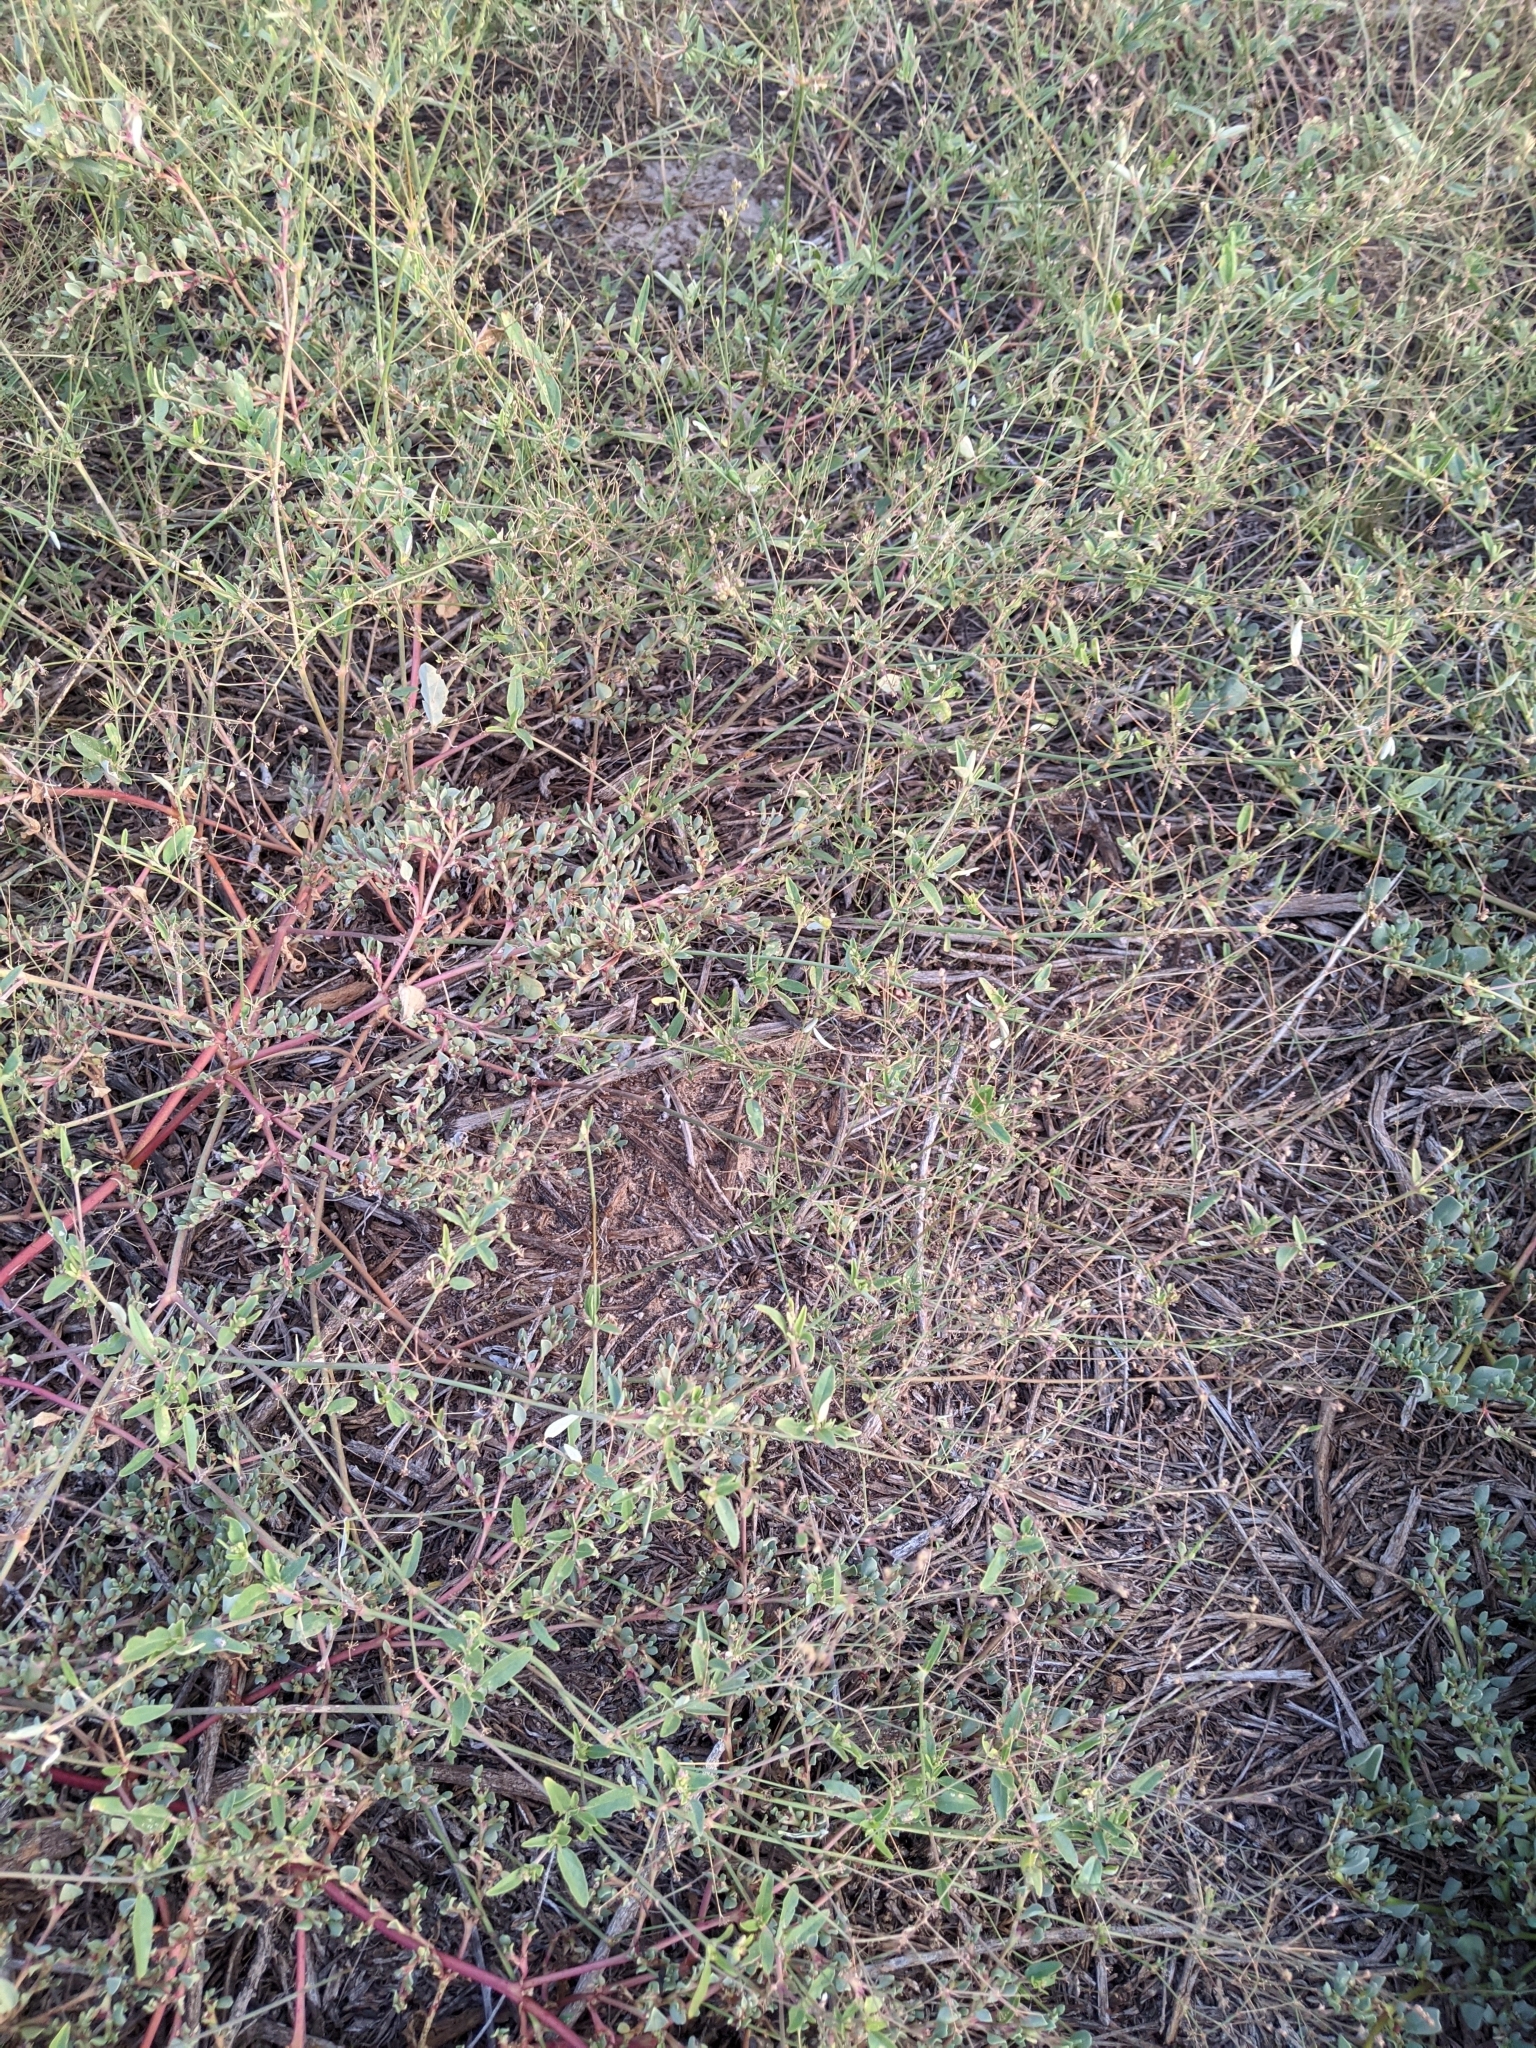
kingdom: Plantae
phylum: Tracheophyta
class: Magnoliopsida
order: Caryophyllales
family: Nyctaginaceae
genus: Boerhavia
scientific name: Boerhavia erecta
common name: Erect spiderling
